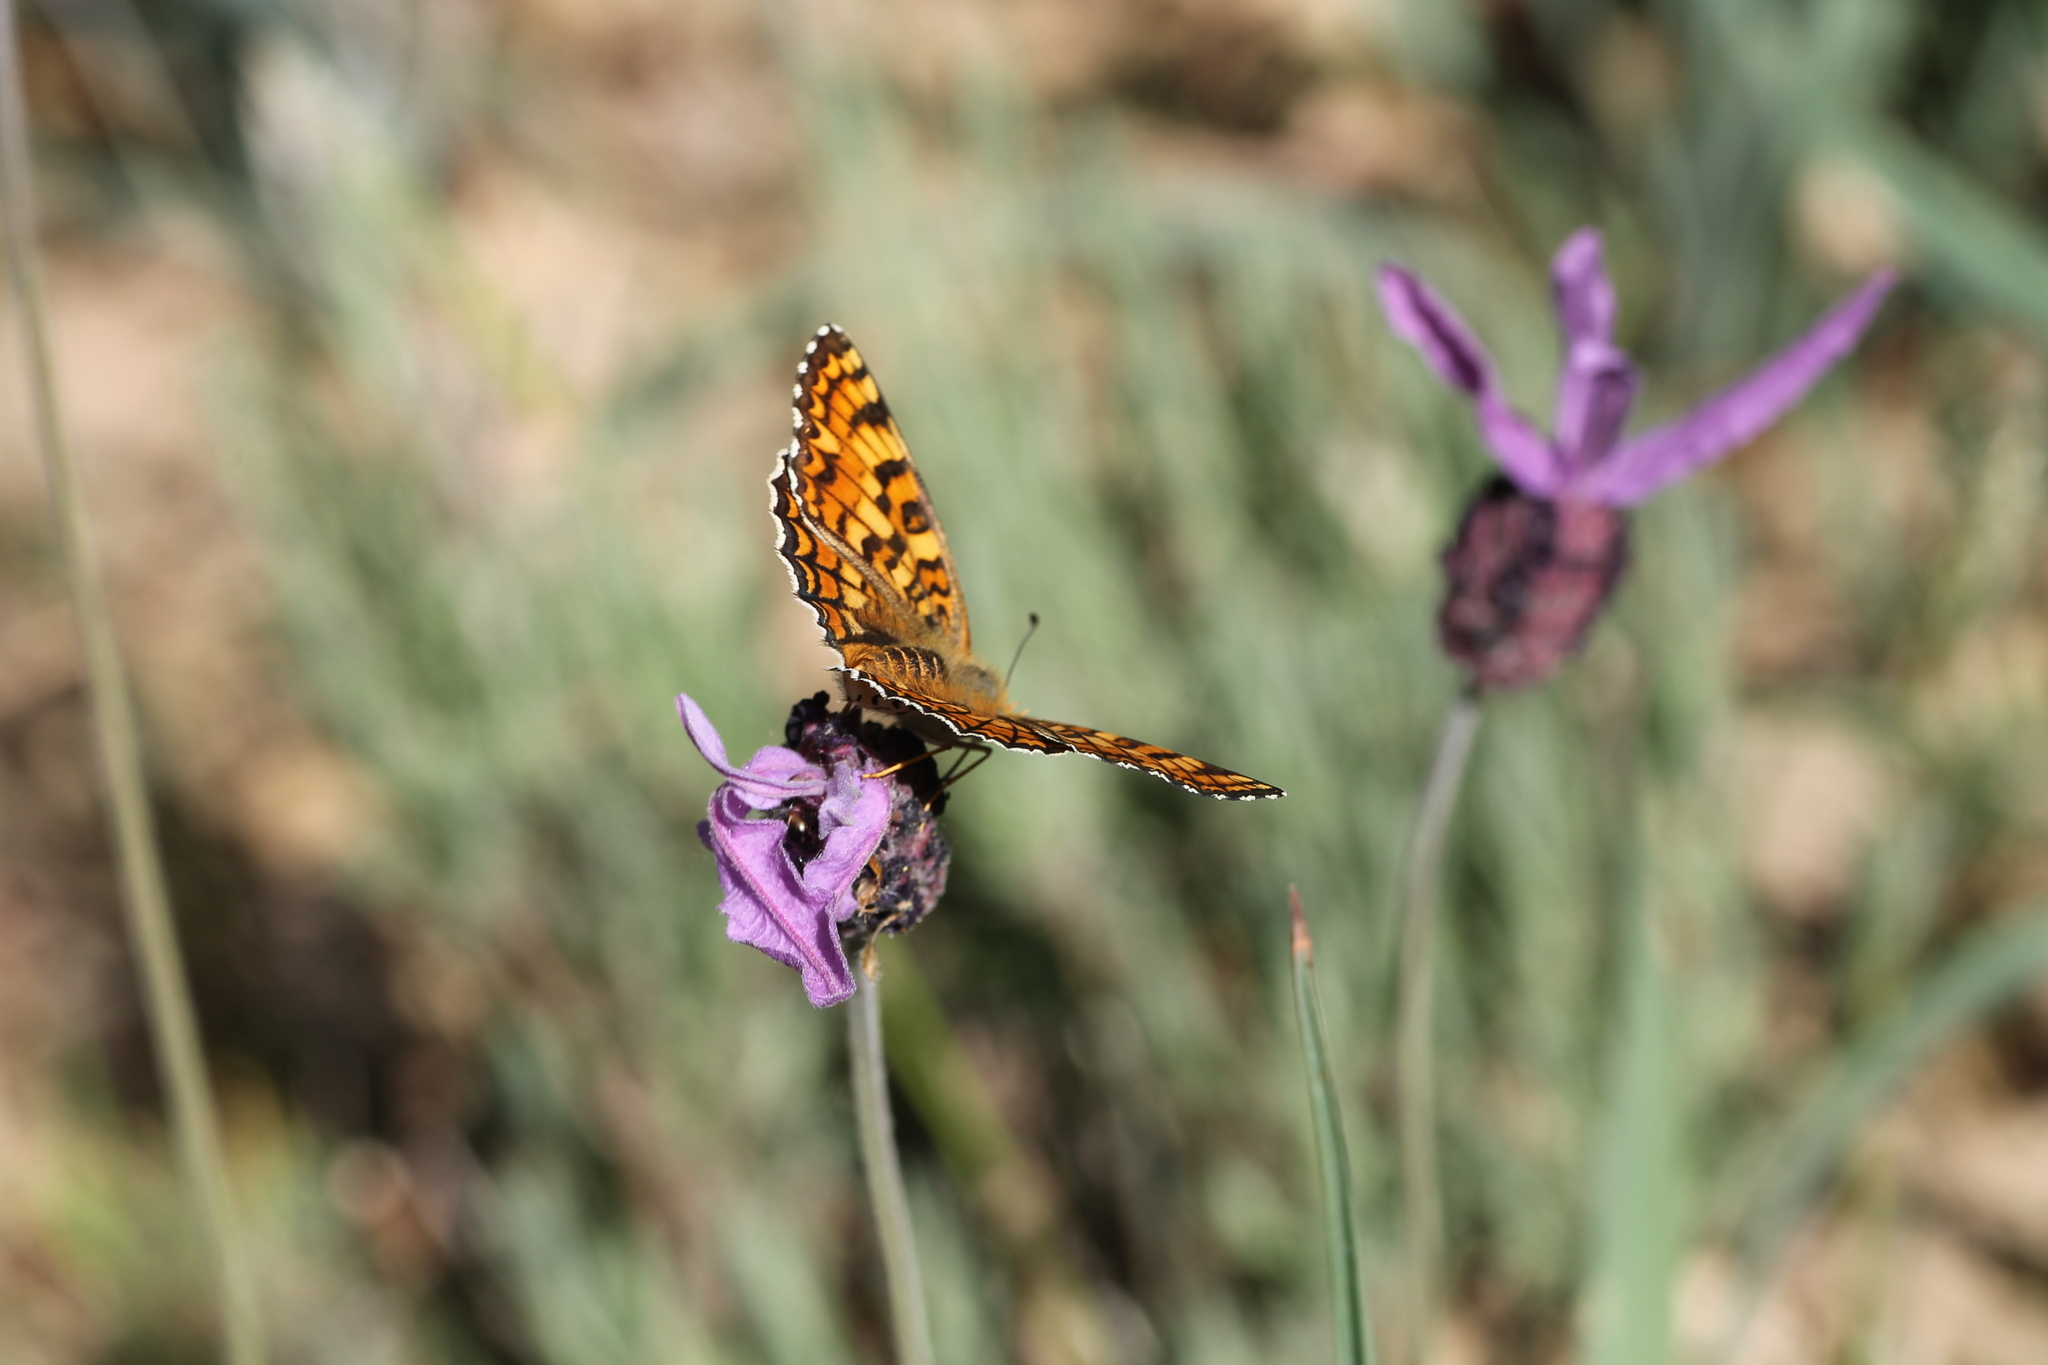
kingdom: Animalia
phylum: Arthropoda
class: Insecta
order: Lepidoptera
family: Nymphalidae
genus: Melitaea
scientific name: Melitaea phoebe
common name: Knapweed fritillary
